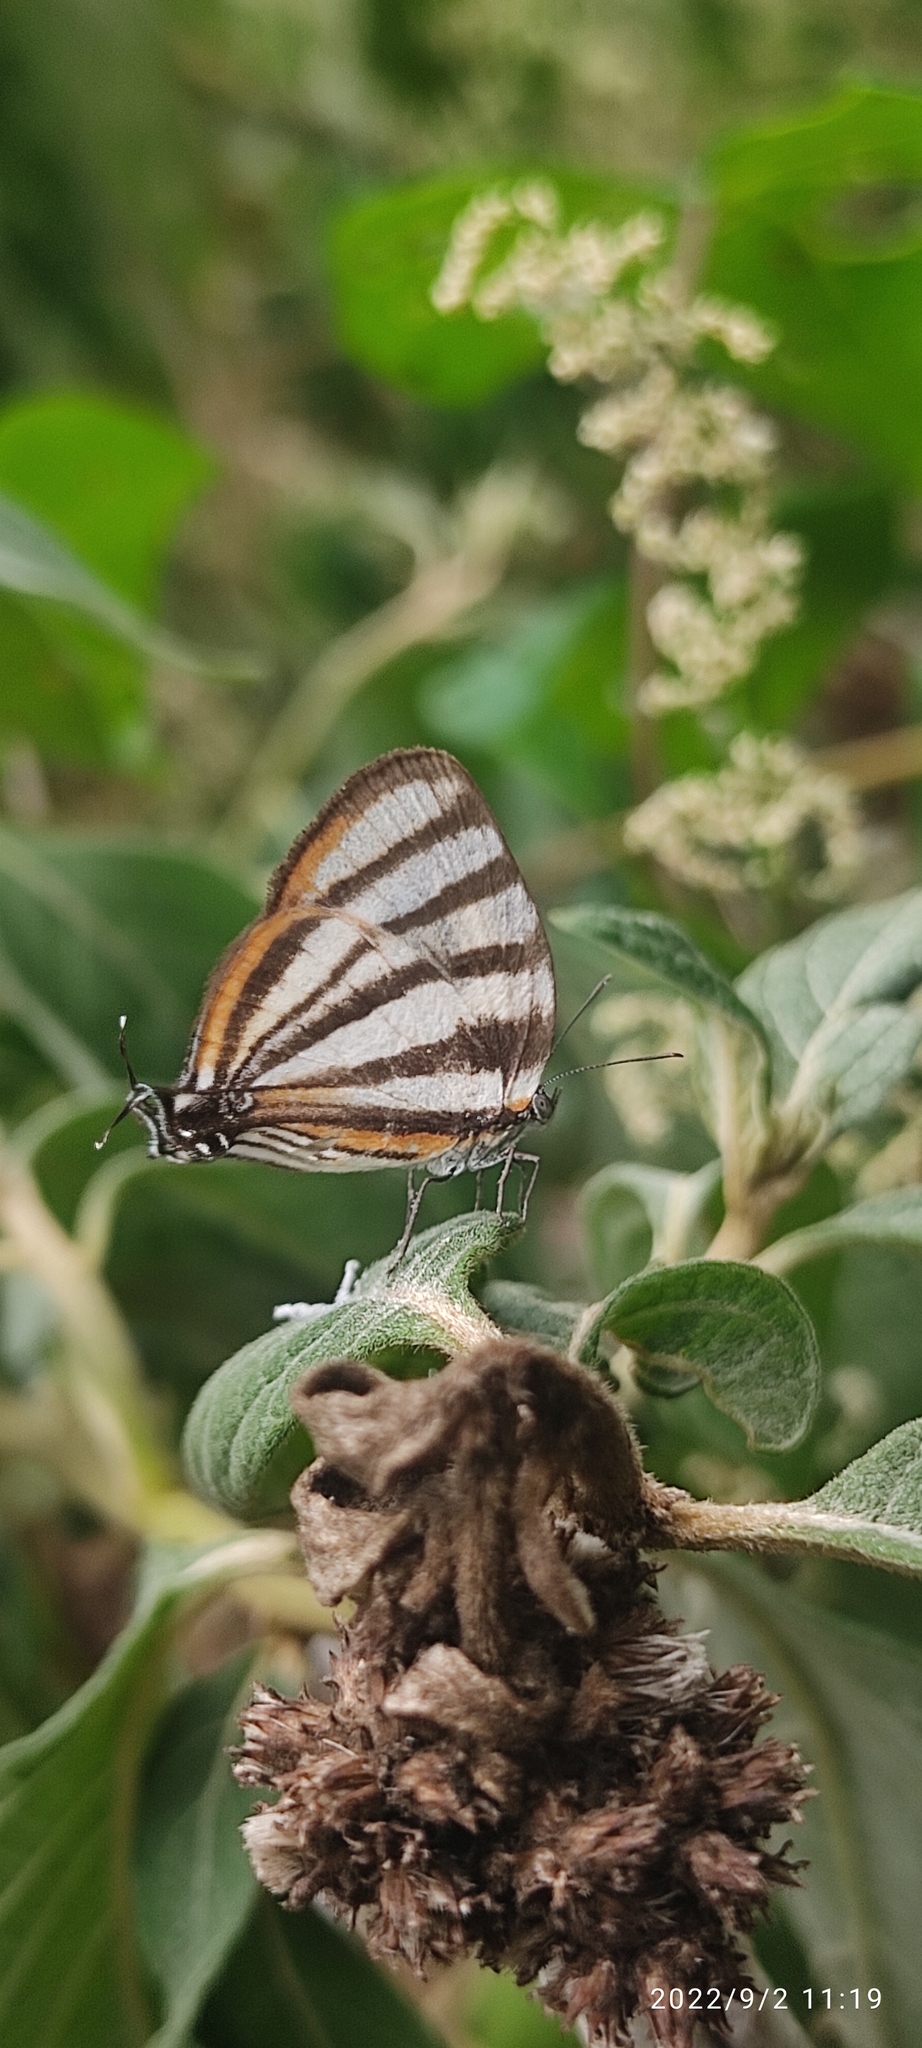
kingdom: Animalia
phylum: Arthropoda
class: Insecta
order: Lepidoptera
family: Lycaenidae
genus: Arawacus
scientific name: Arawacus separata
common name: Separated stripestreak
